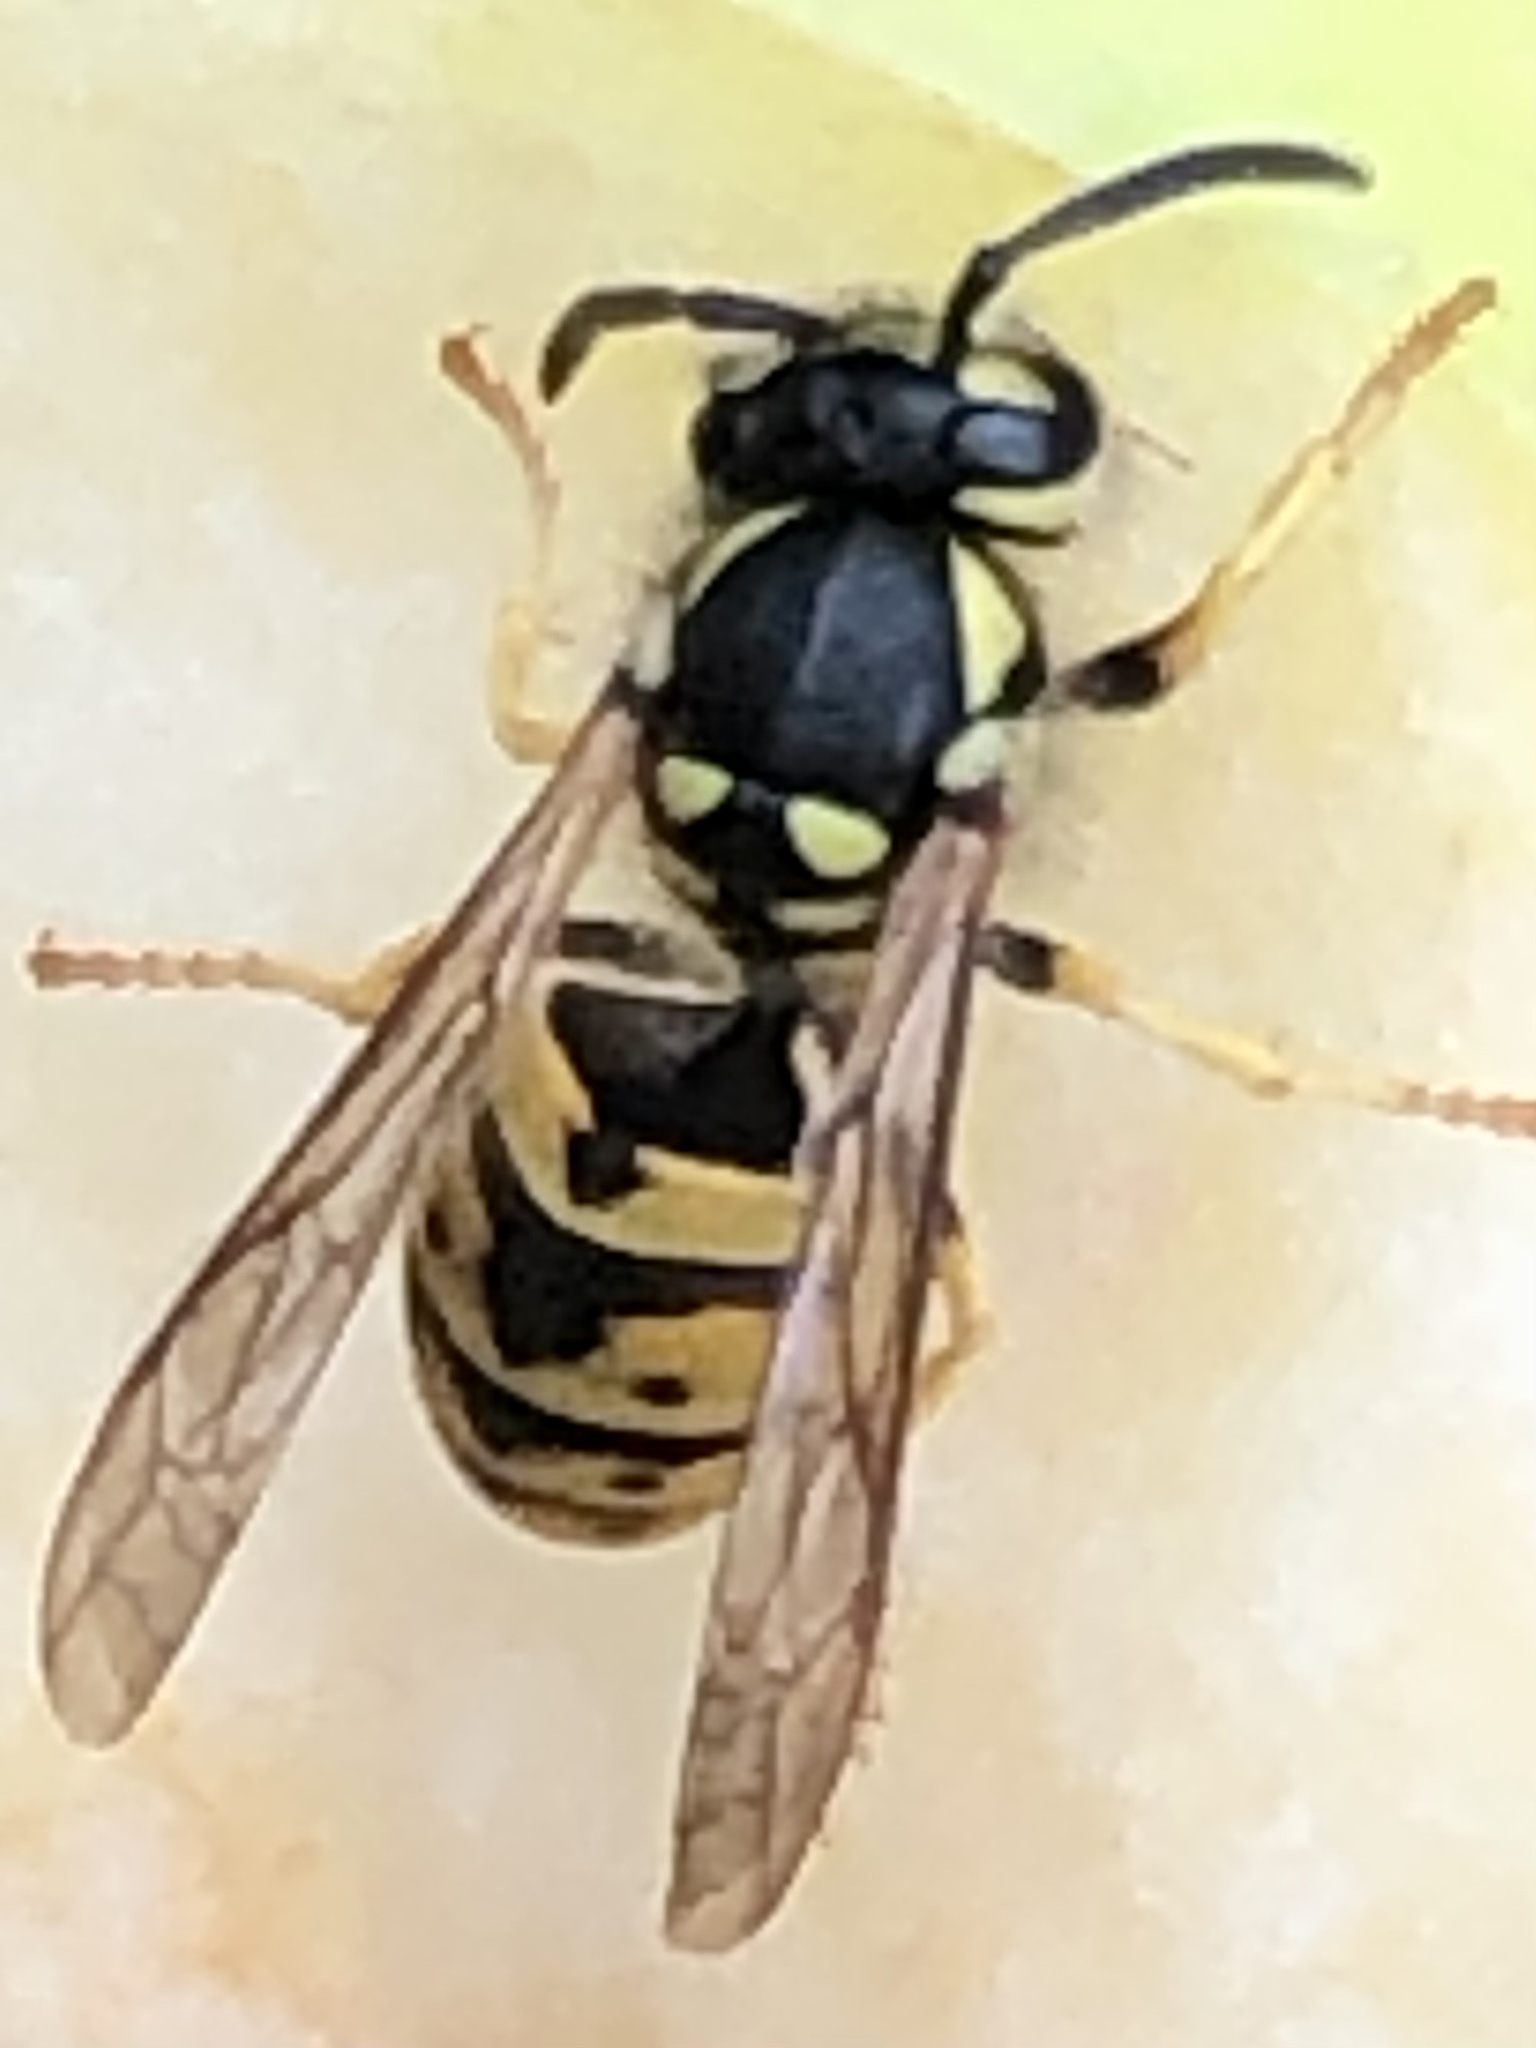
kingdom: Animalia
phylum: Arthropoda
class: Insecta
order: Hymenoptera
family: Vespidae
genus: Vespula
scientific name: Vespula germanica
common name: German wasp
